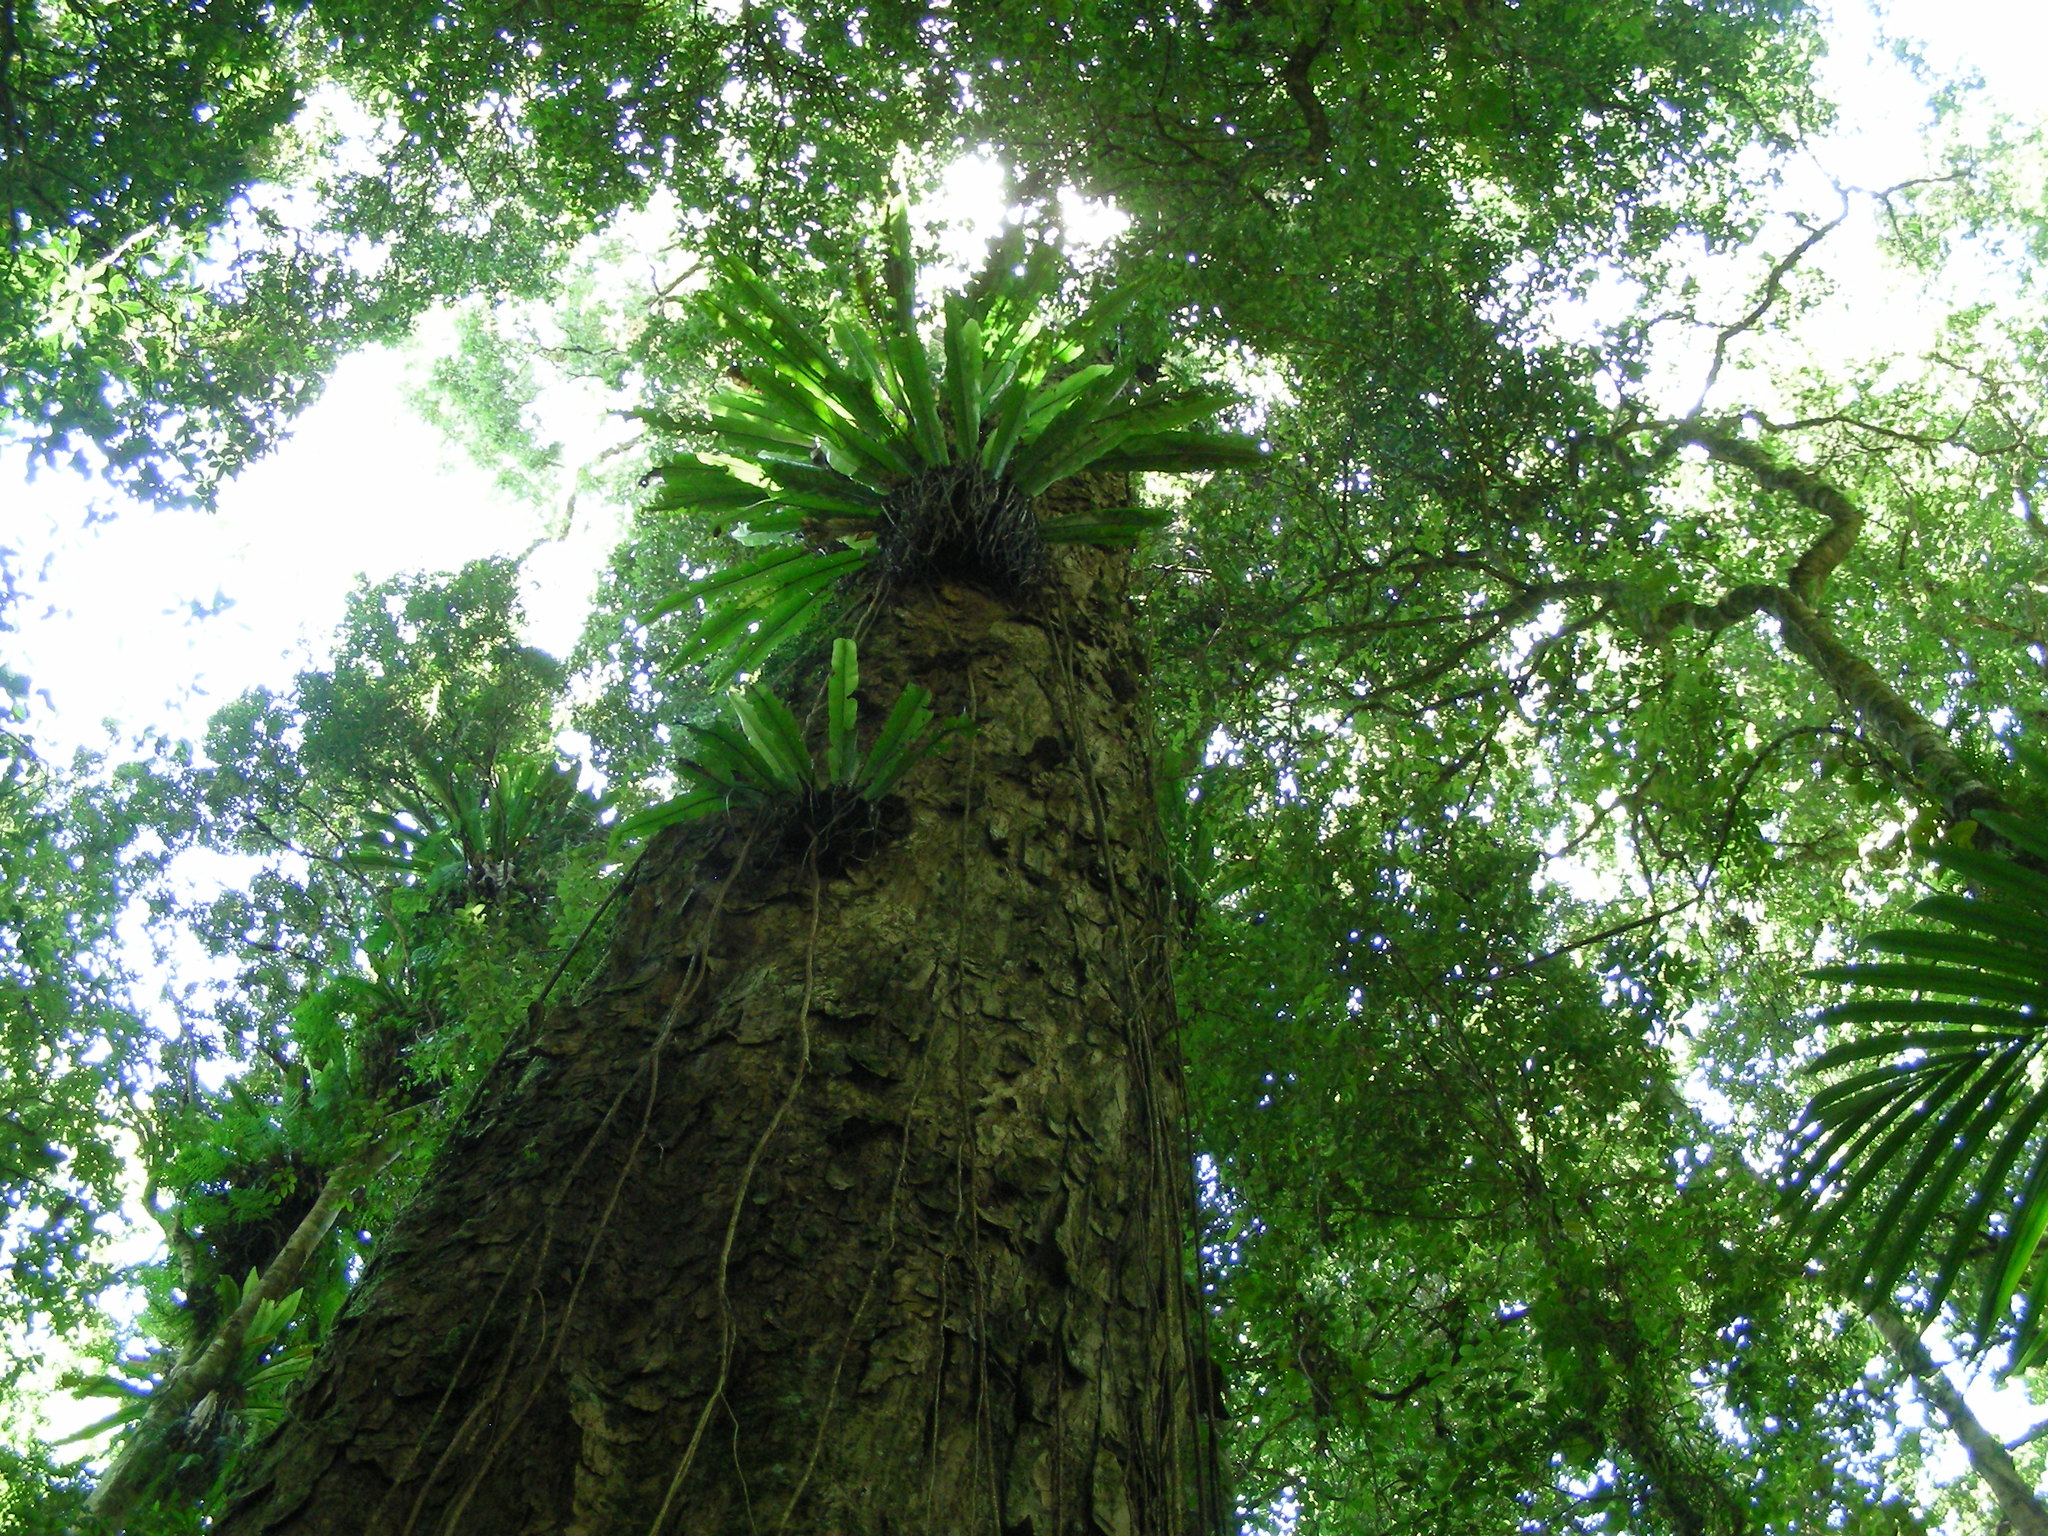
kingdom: Plantae
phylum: Tracheophyta
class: Polypodiopsida
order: Polypodiales
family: Aspleniaceae
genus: Asplenium
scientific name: Asplenium australasicum
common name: Bird's-nest fern
